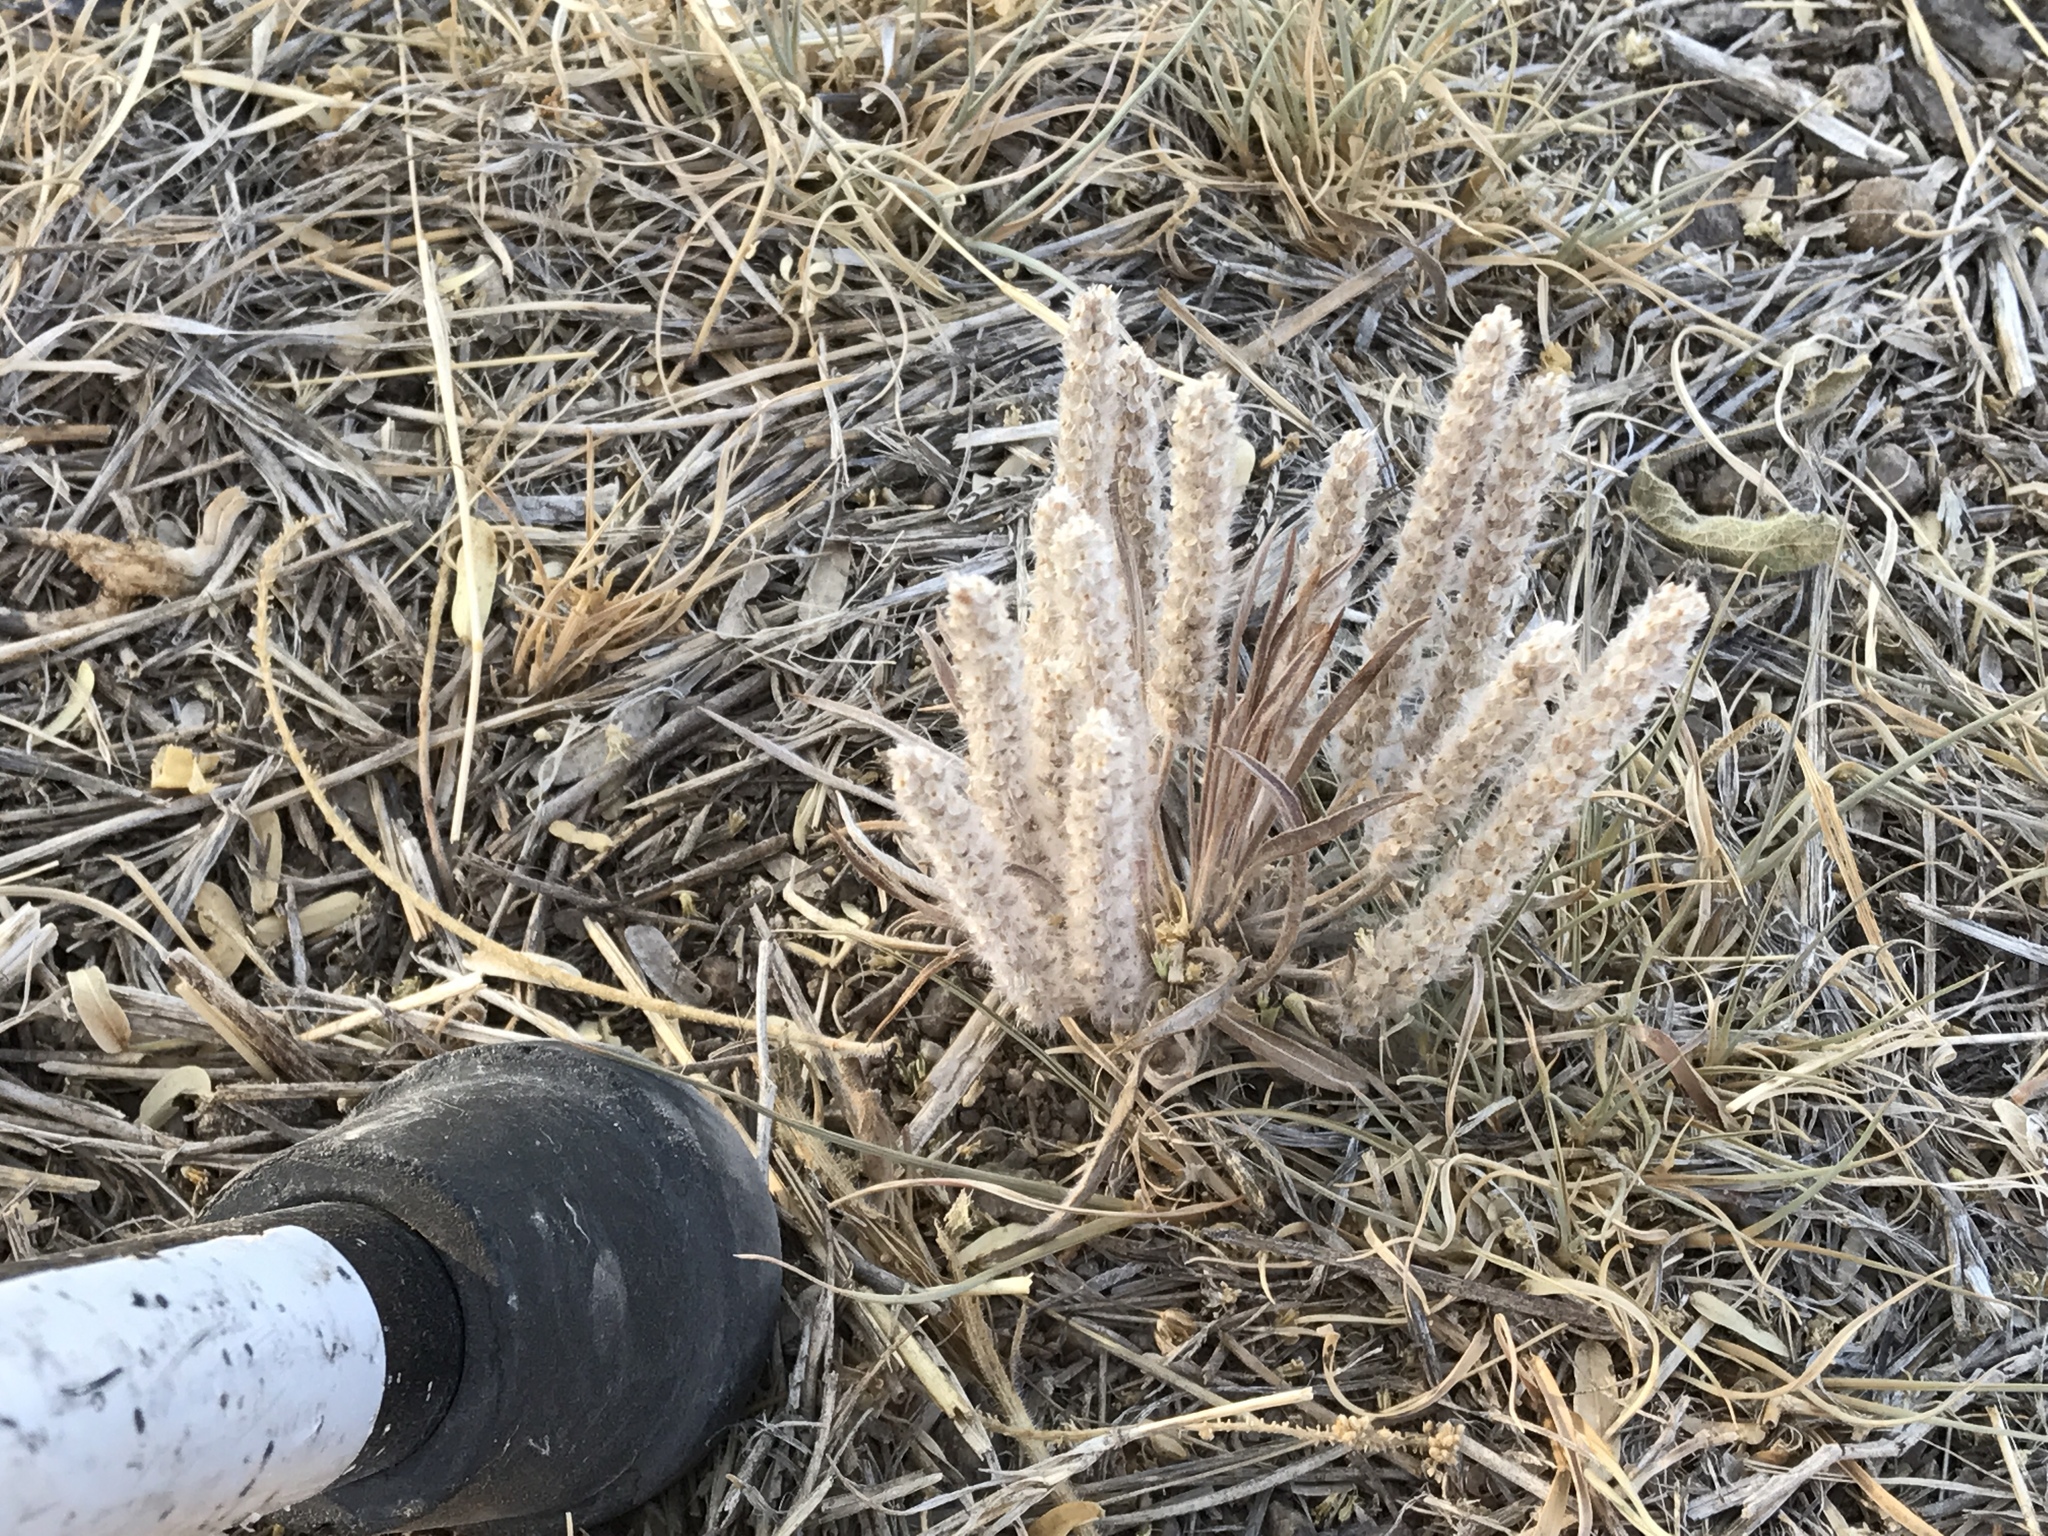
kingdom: Plantae
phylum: Tracheophyta
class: Magnoliopsida
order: Lamiales
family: Plantaginaceae
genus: Plantago
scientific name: Plantago patagonica
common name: Patagonia indian-wheat
